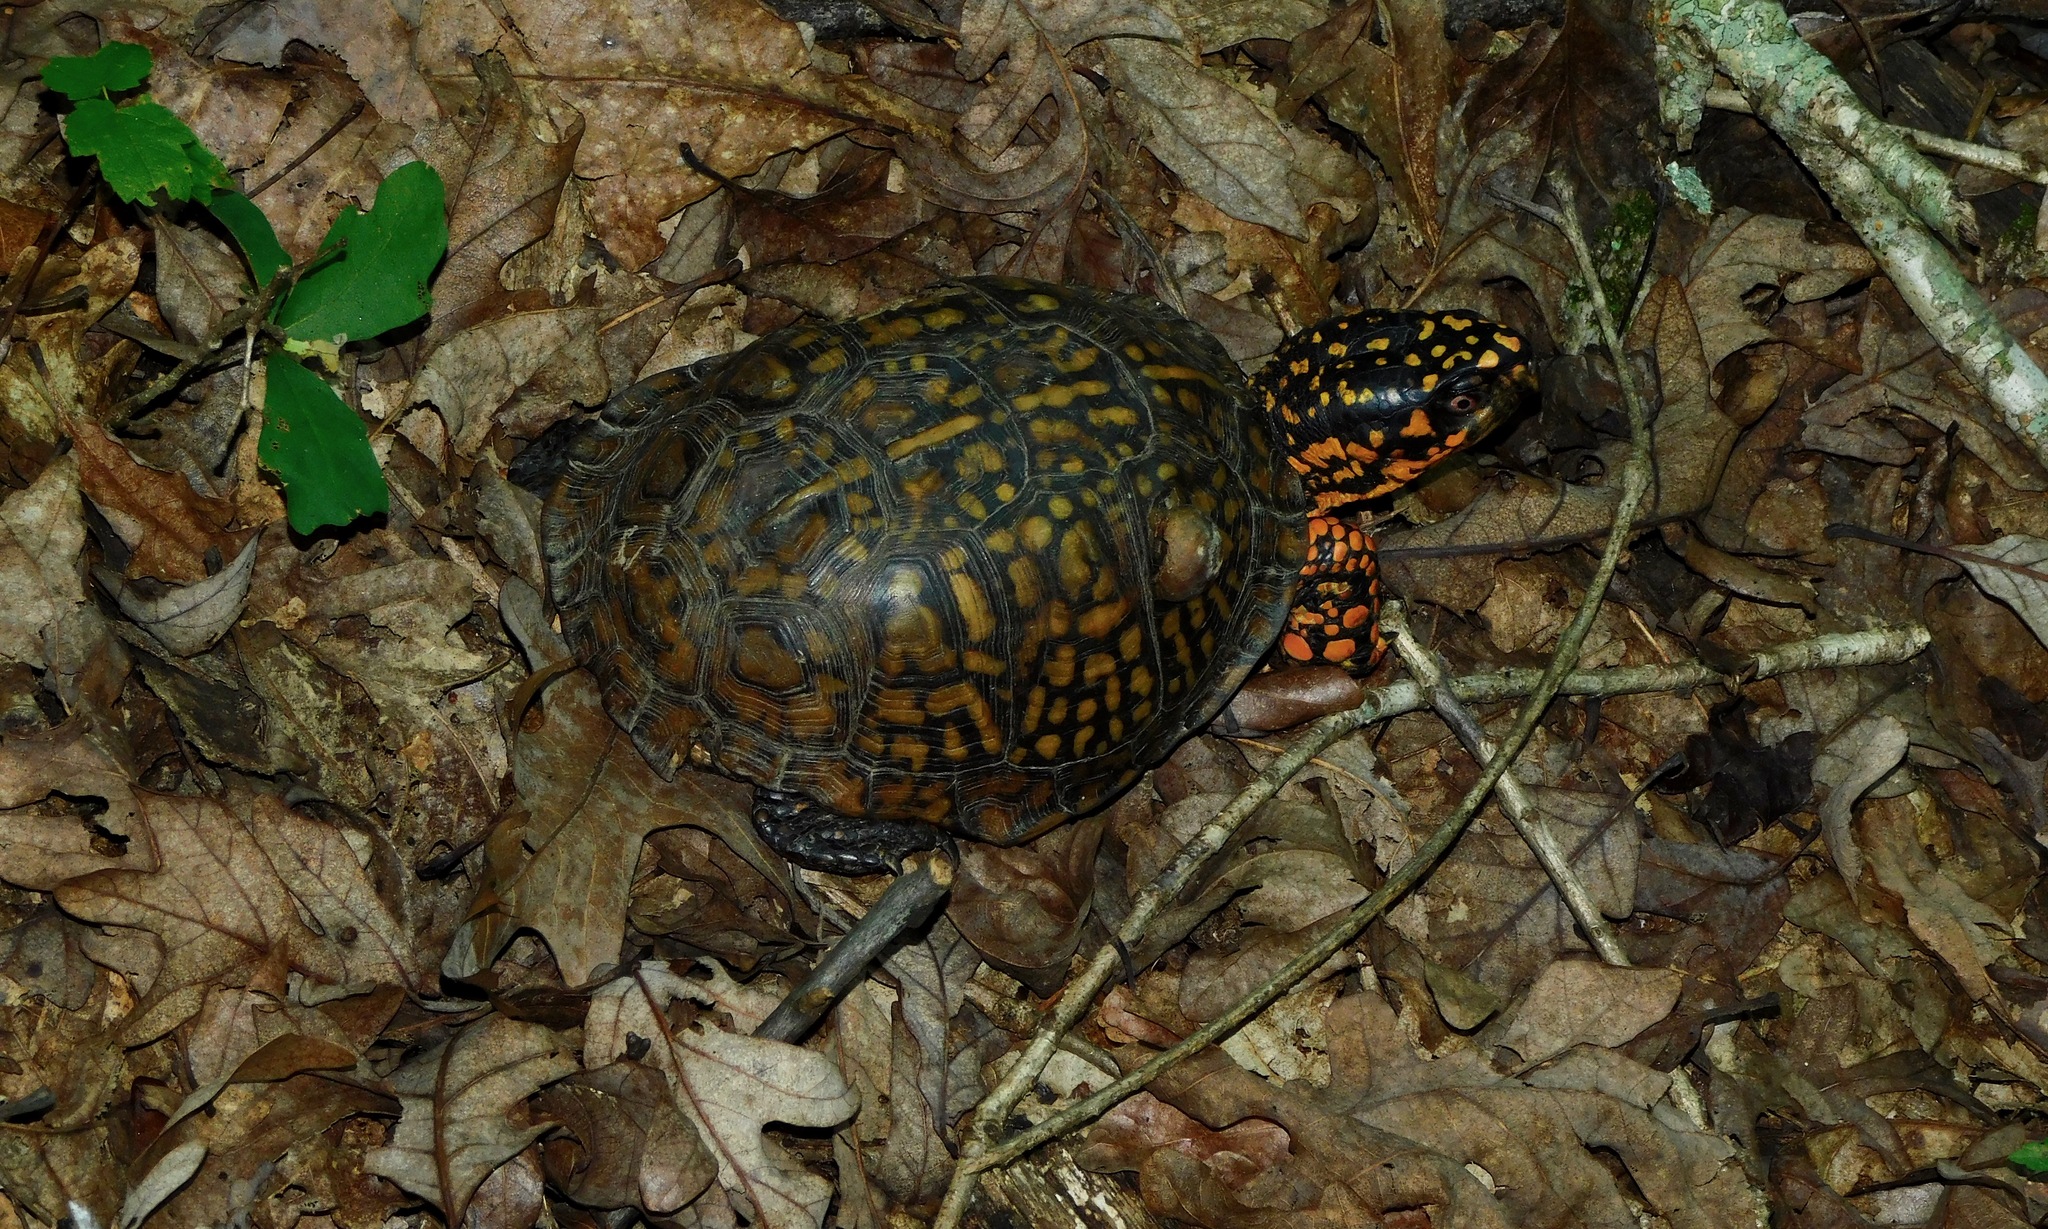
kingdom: Animalia
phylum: Chordata
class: Testudines
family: Emydidae
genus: Terrapene
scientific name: Terrapene carolina
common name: Common box turtle
